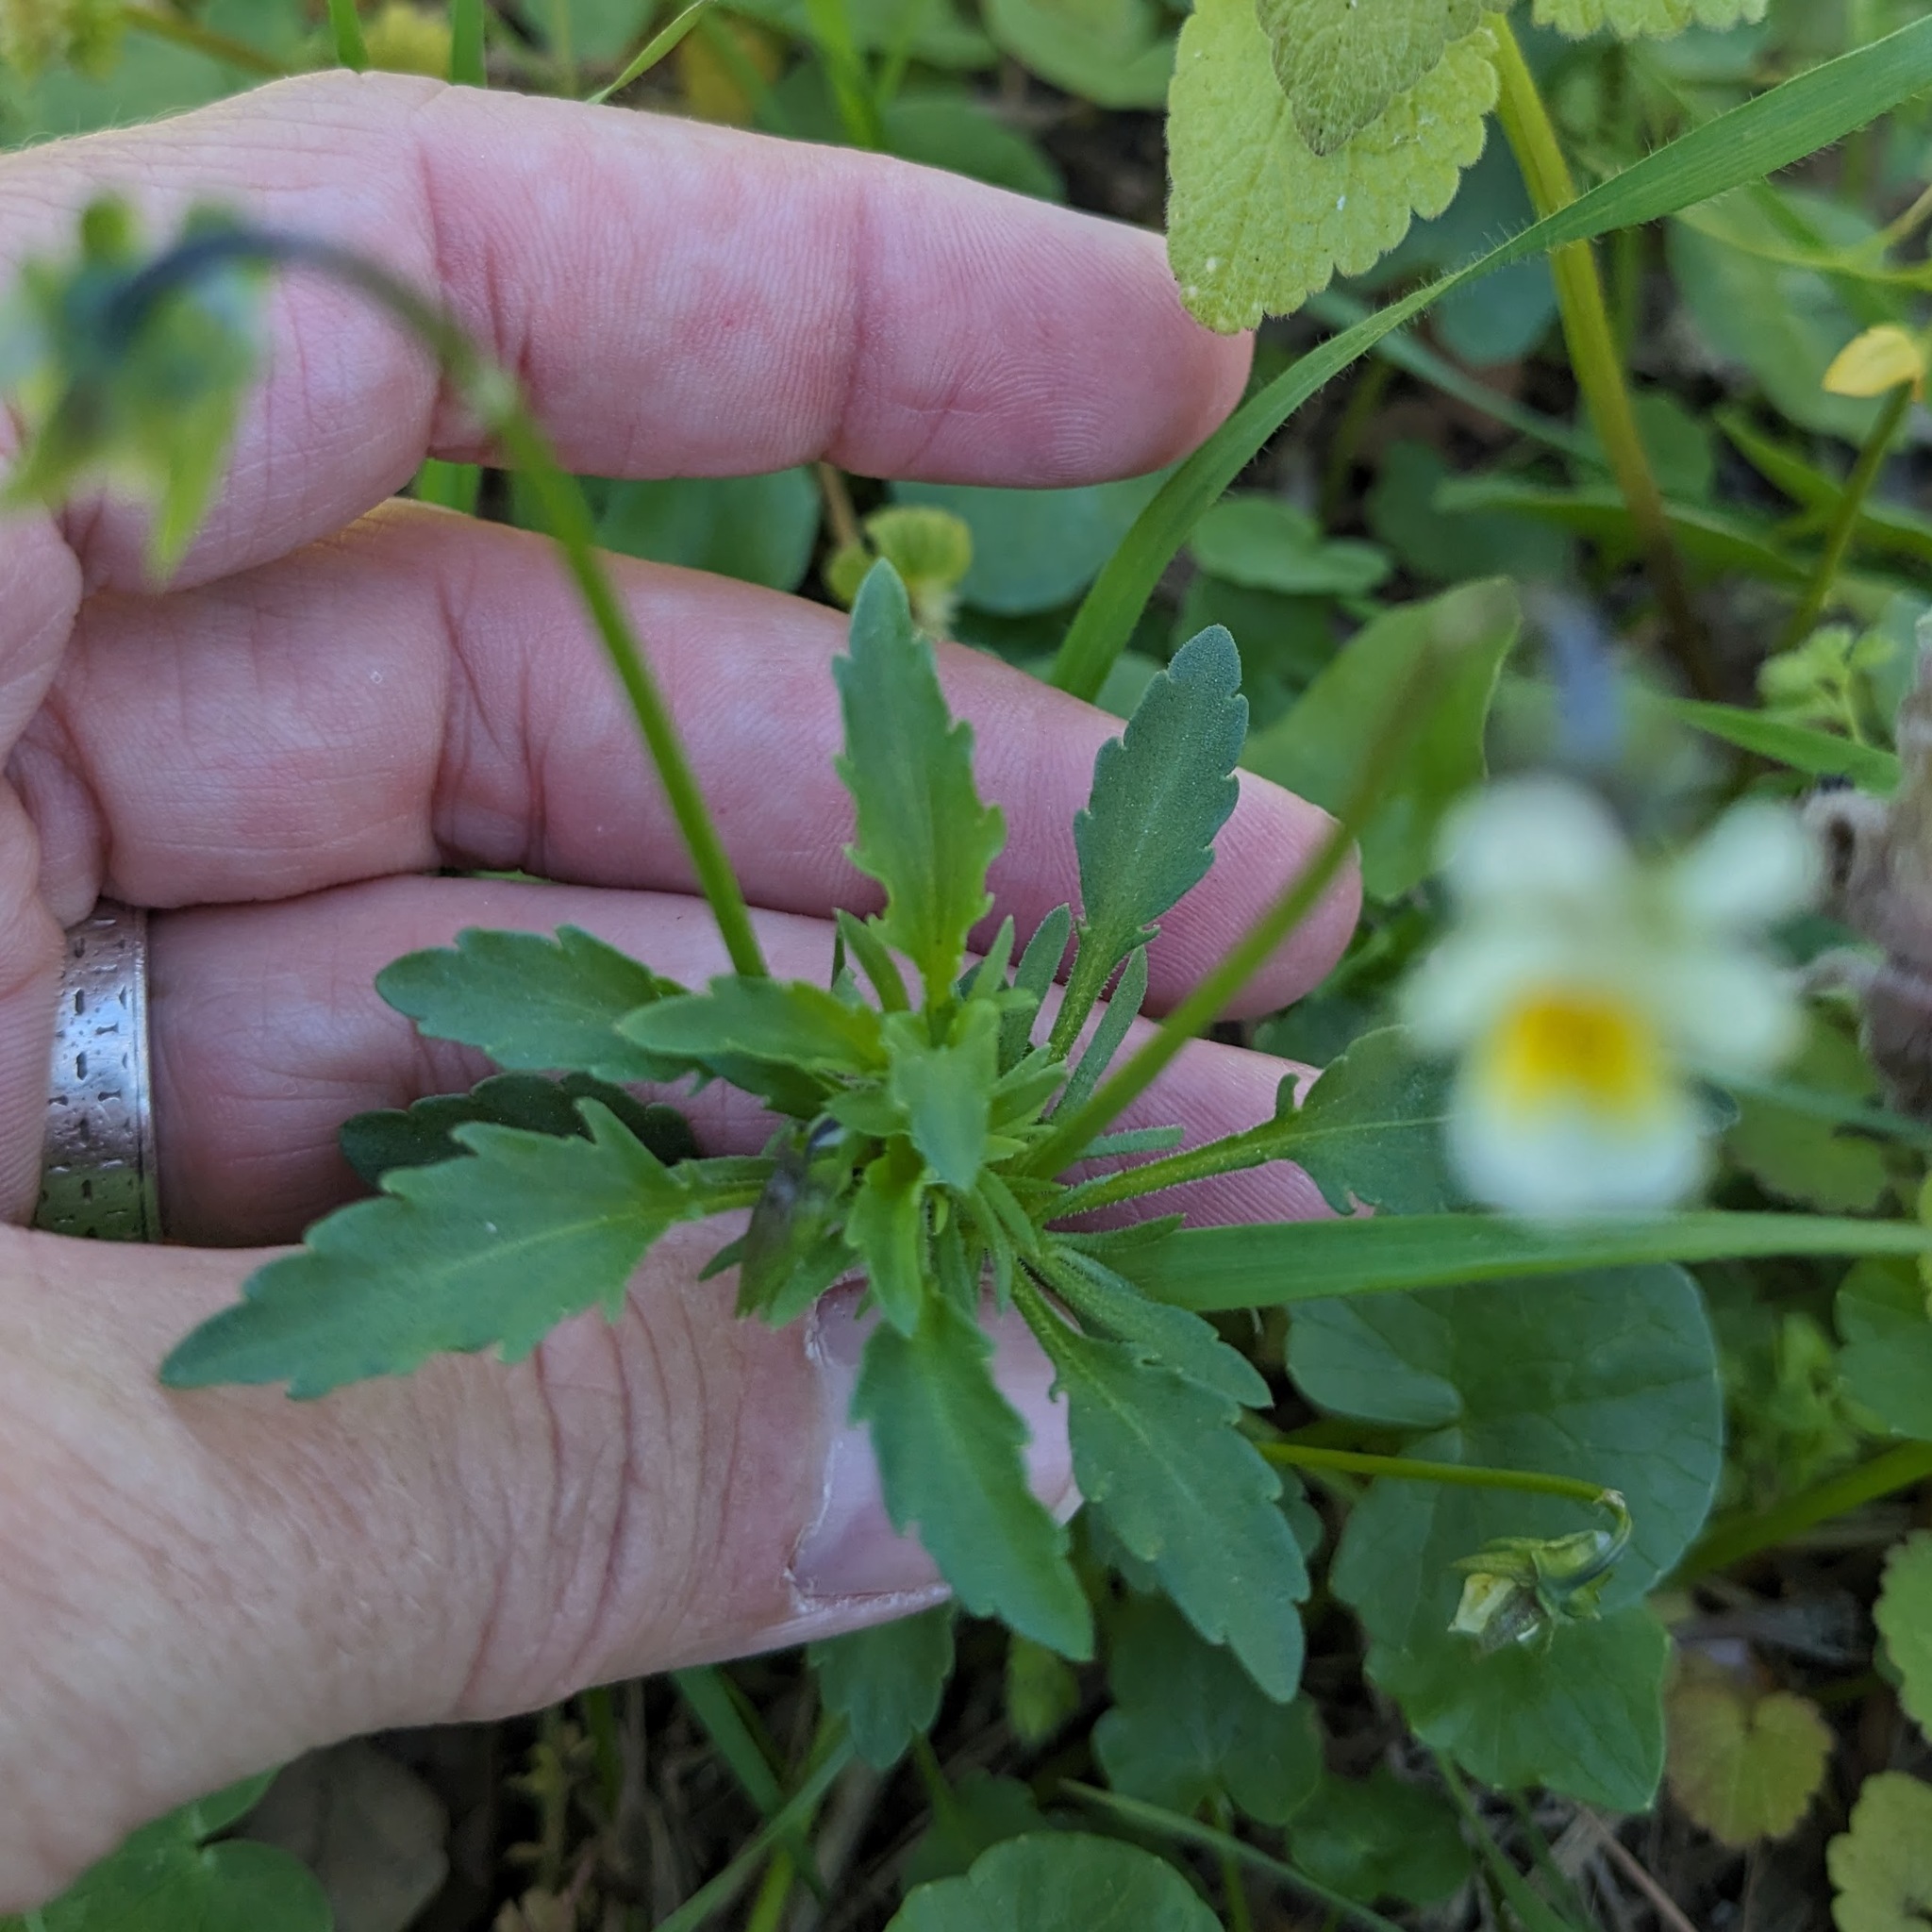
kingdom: Plantae
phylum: Tracheophyta
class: Magnoliopsida
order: Malpighiales
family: Violaceae
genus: Viola
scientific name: Viola arvensis
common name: Field pansy
